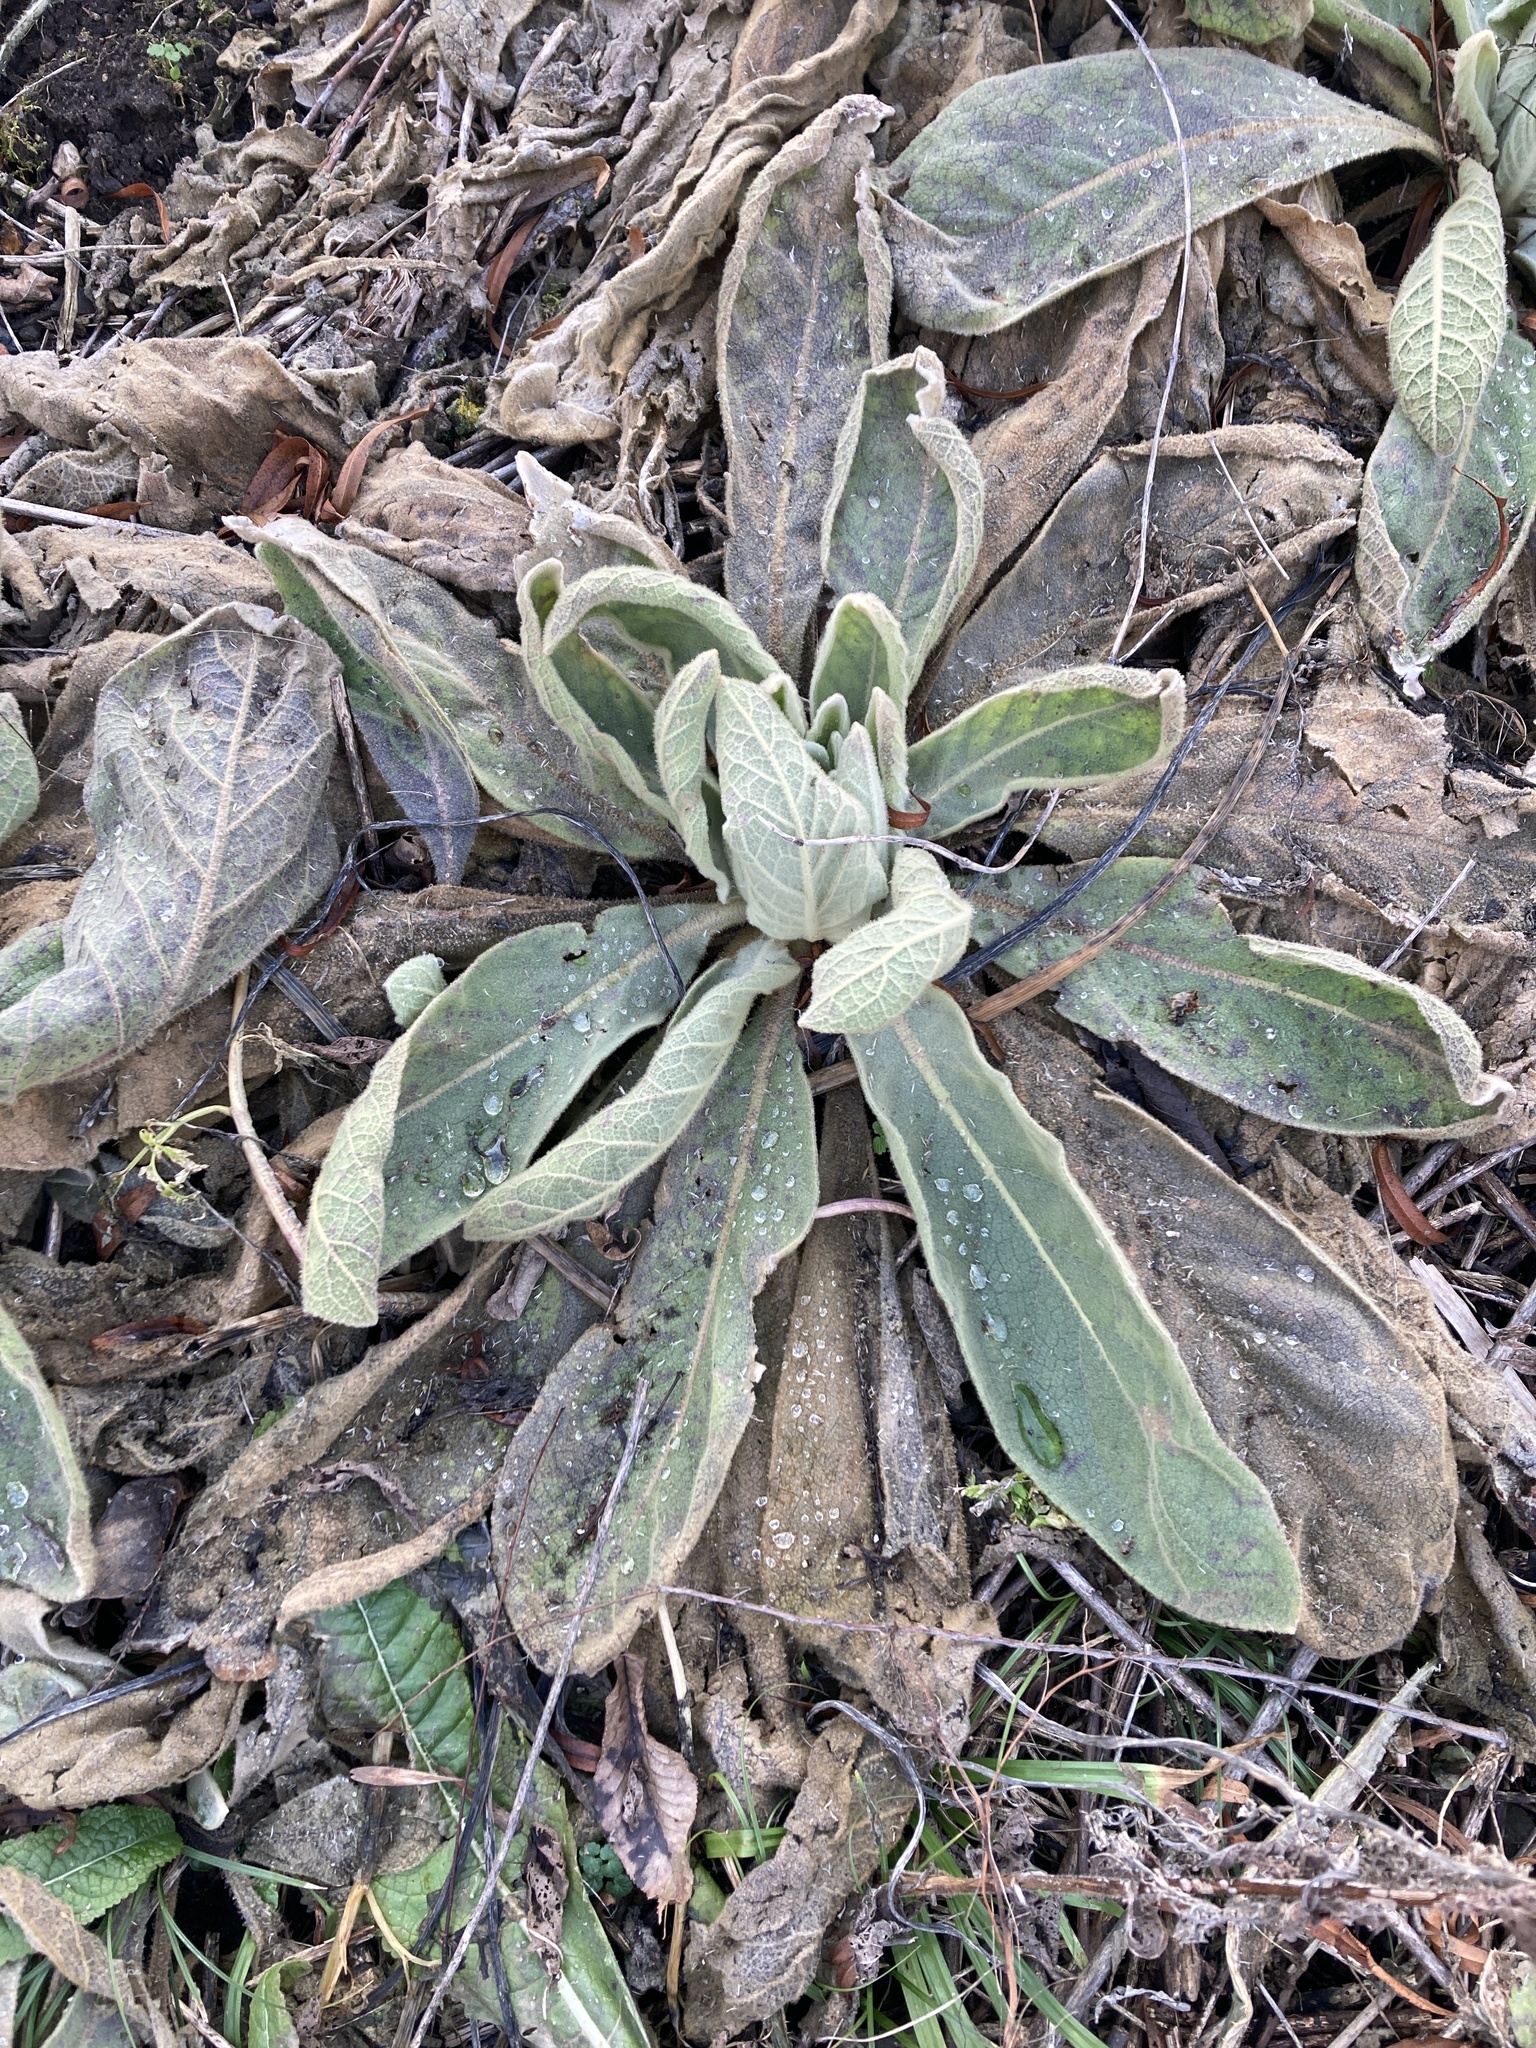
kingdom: Plantae
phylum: Tracheophyta
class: Magnoliopsida
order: Lamiales
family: Scrophulariaceae
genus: Verbascum
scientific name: Verbascum thapsus
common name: Common mullein
